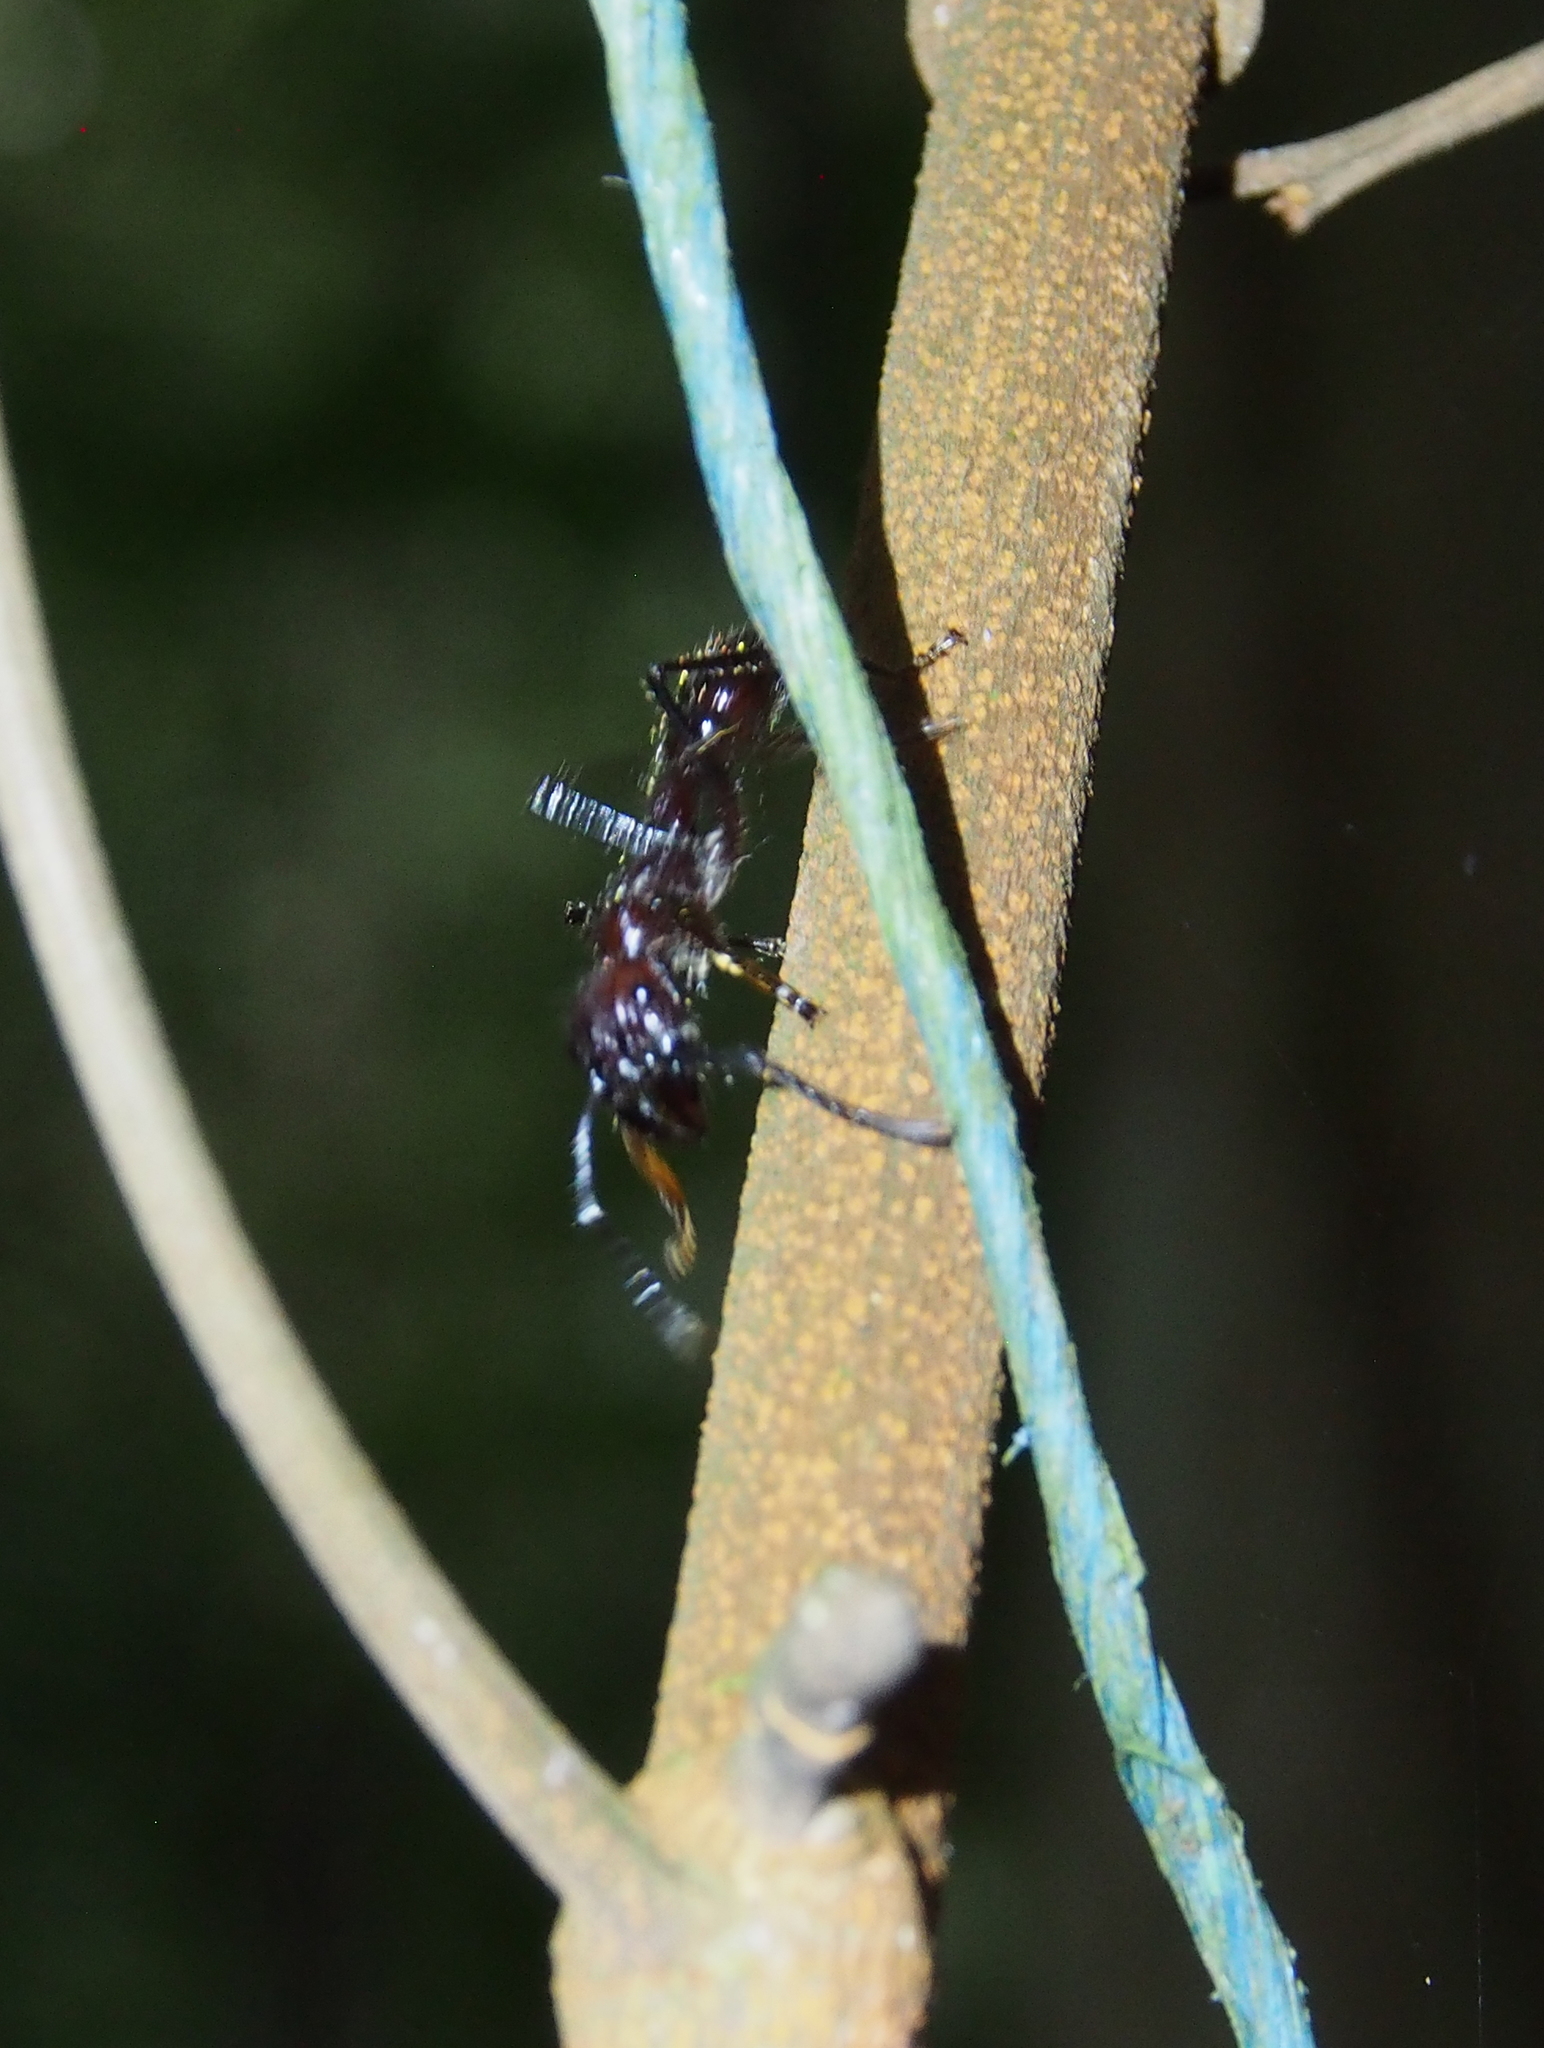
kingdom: Animalia
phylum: Arthropoda
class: Insecta
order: Hymenoptera
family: Formicidae
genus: Paraponera
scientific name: Paraponera clavata
